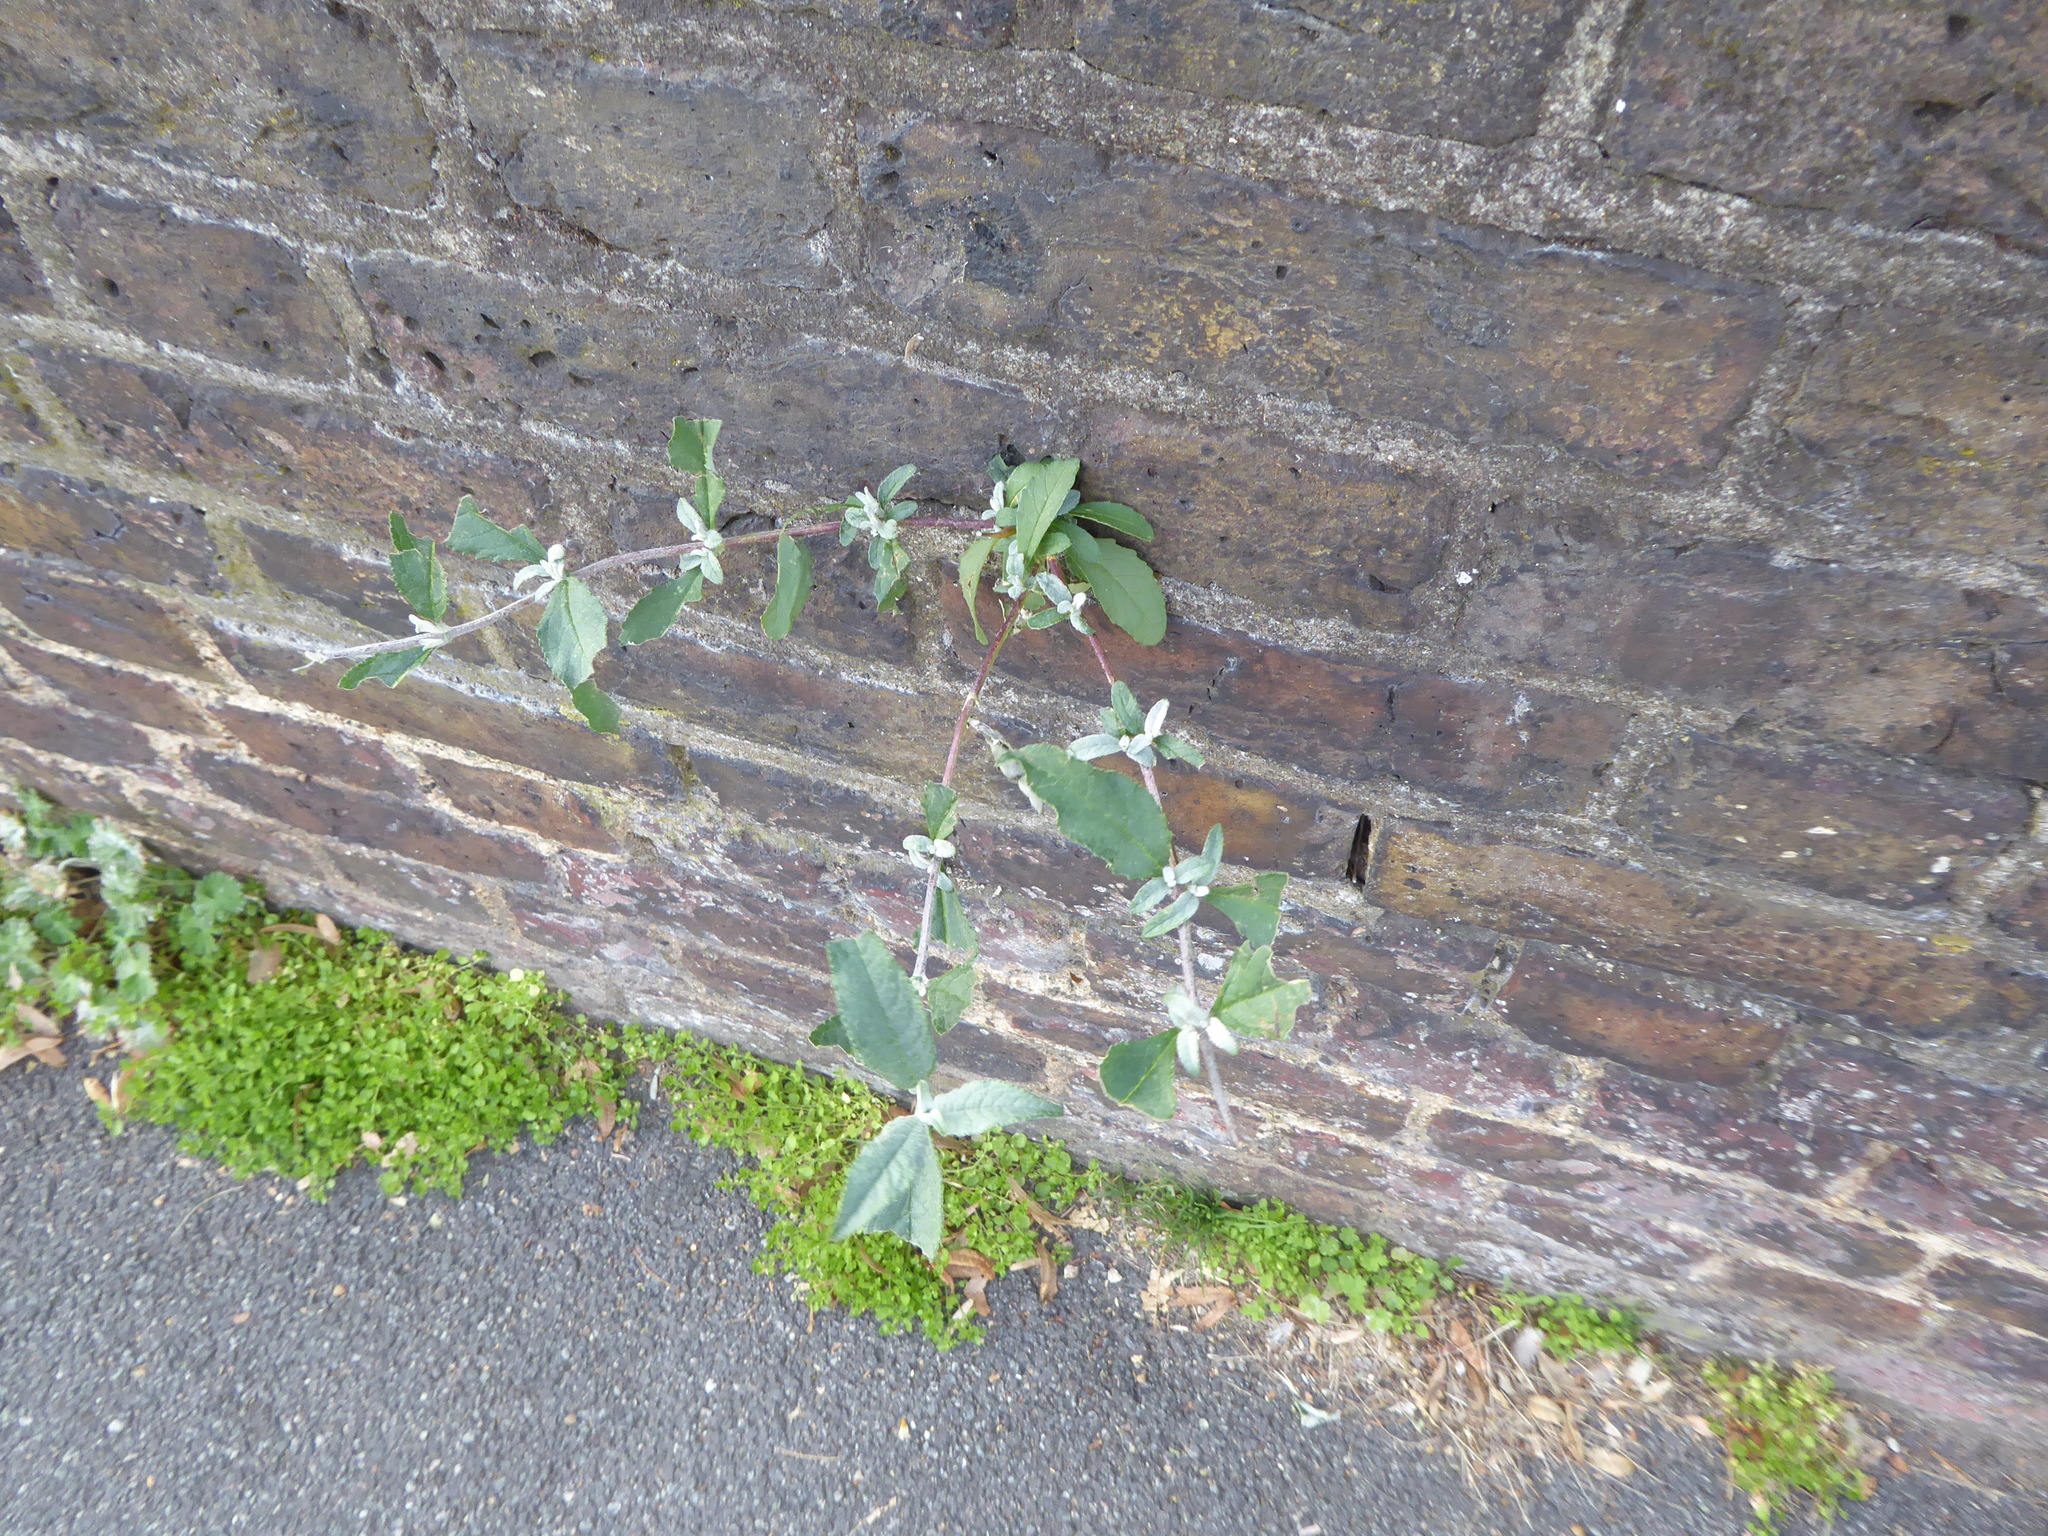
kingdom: Plantae
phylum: Tracheophyta
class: Magnoliopsida
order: Lamiales
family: Scrophulariaceae
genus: Buddleja
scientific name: Buddleja davidii
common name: Butterfly-bush
